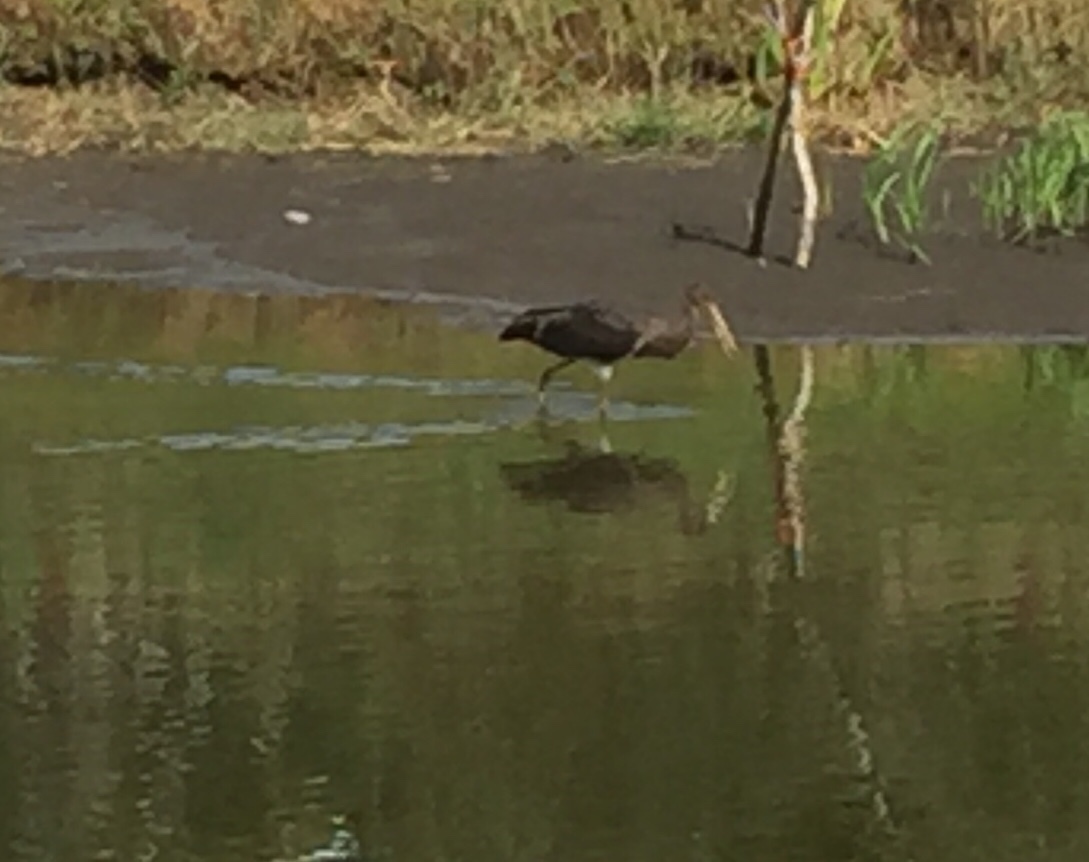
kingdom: Animalia
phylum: Chordata
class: Aves
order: Ciconiiformes
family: Ciconiidae
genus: Ciconia
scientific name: Ciconia nigra
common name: Black stork
